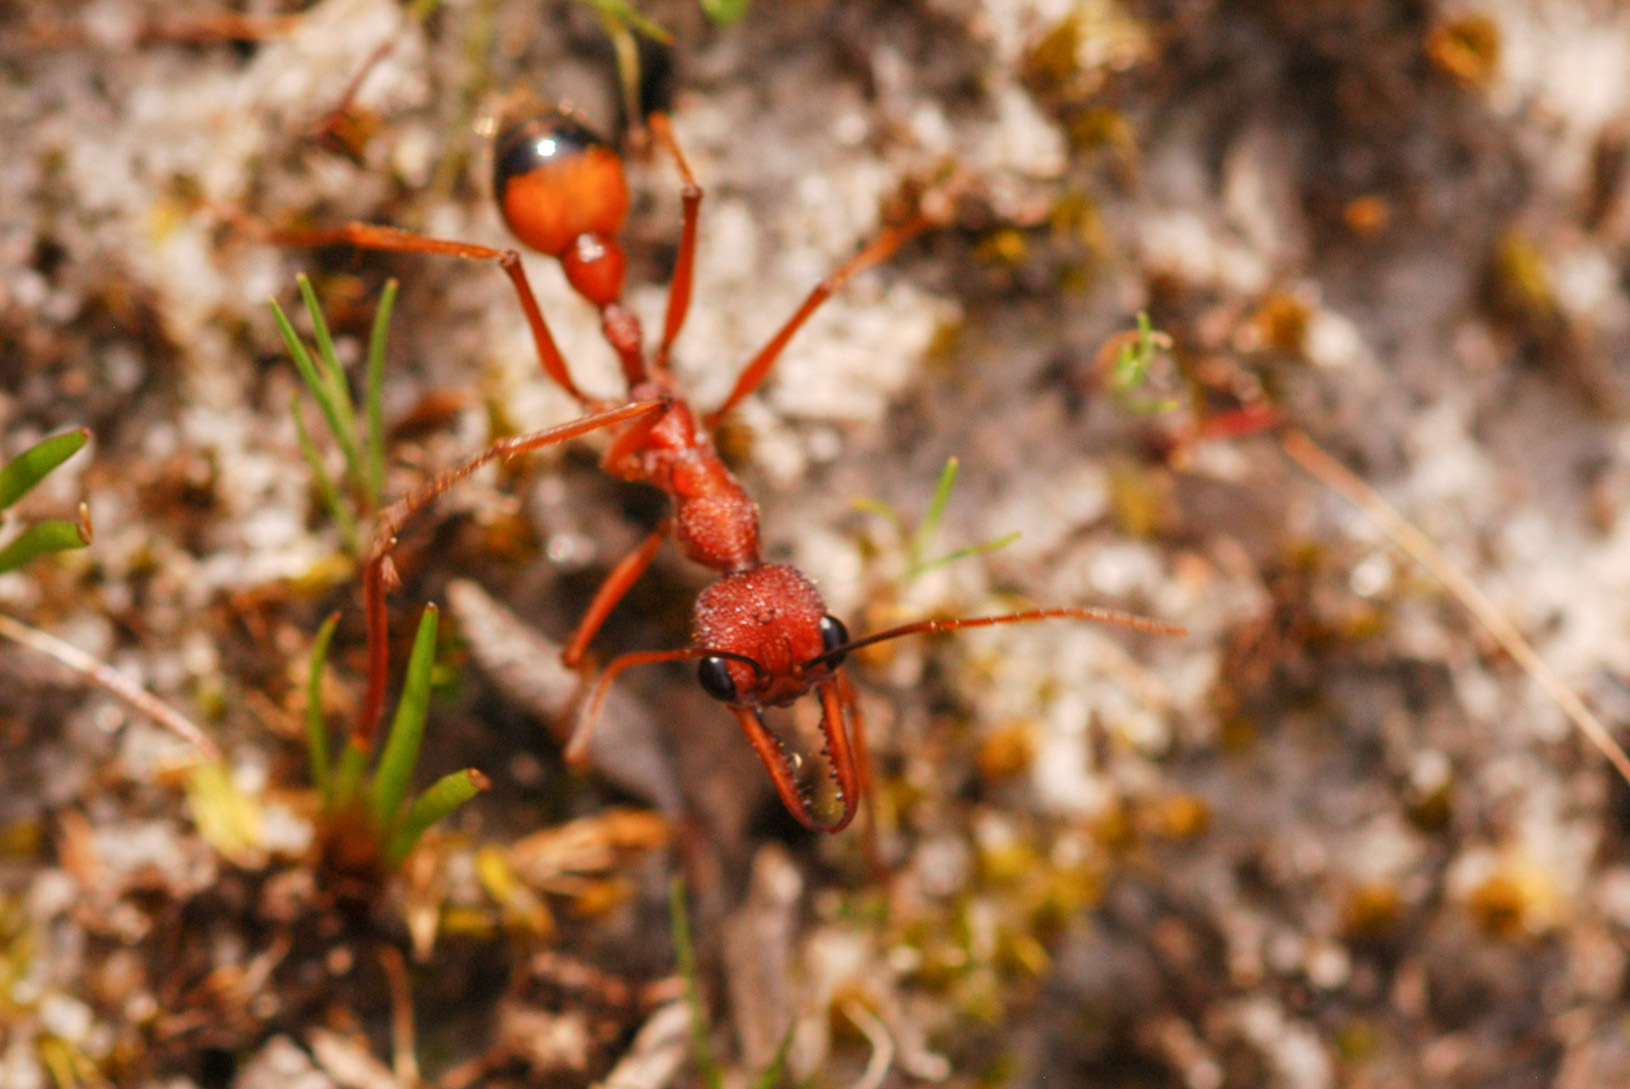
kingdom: Animalia
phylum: Arthropoda
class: Insecta
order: Hymenoptera
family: Formicidae
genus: Myrmecia
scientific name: Myrmecia nigriscapa
